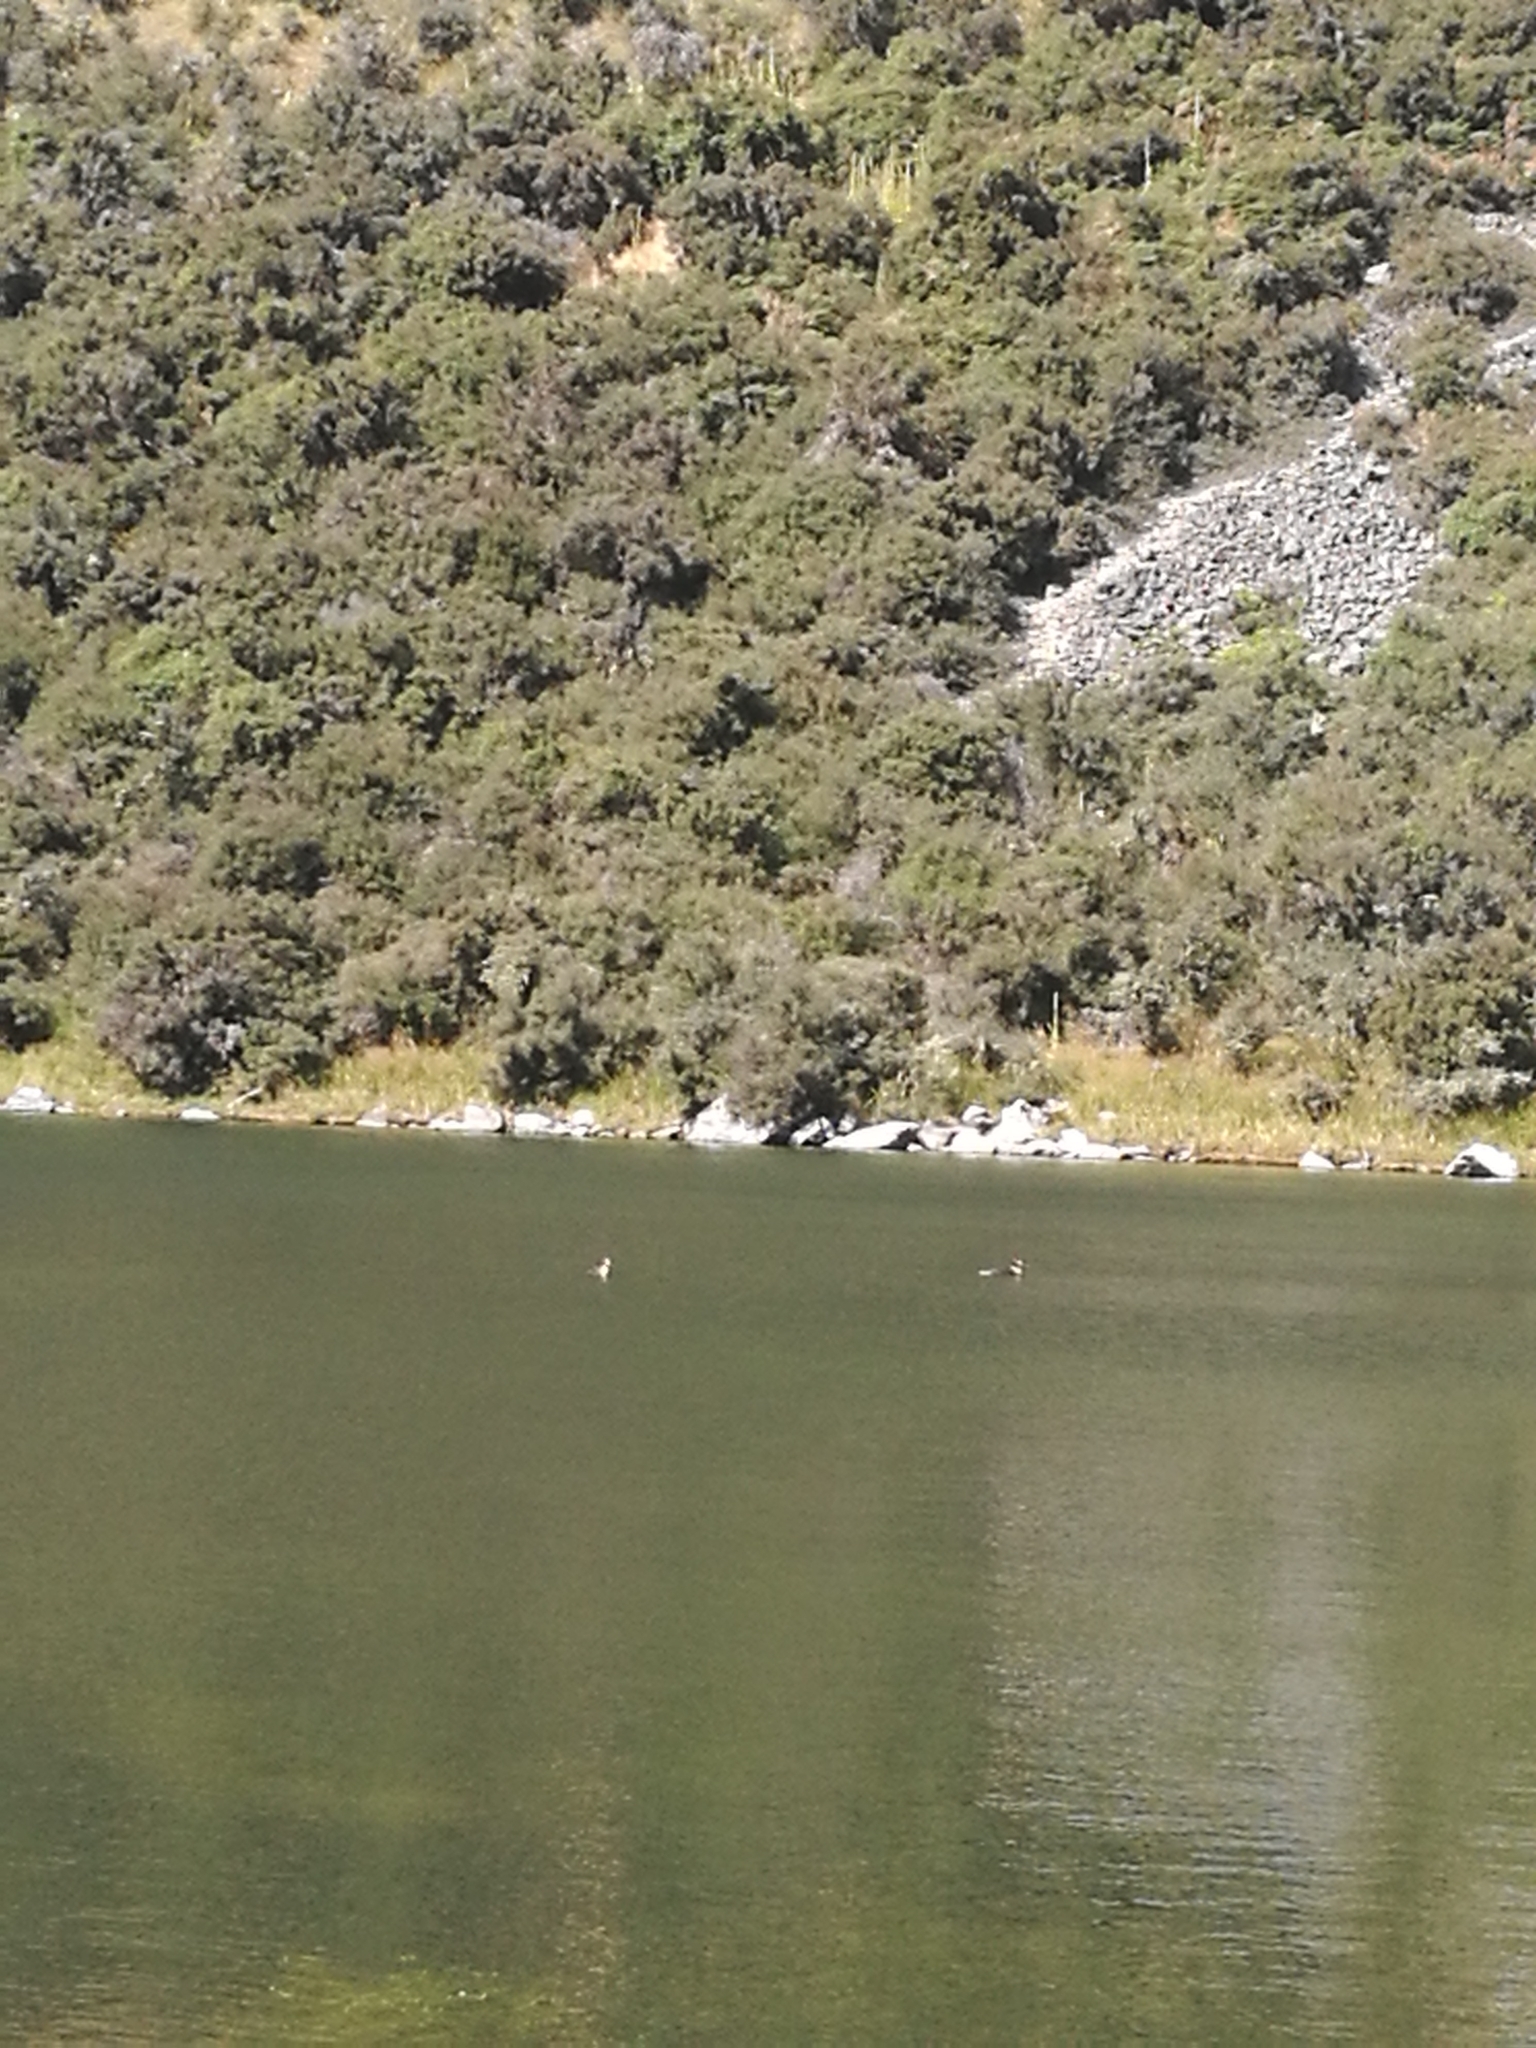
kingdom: Animalia
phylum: Chordata
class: Aves
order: Podicipediformes
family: Podicipedidae
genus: Podiceps
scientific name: Podiceps cristatus
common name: Great crested grebe
